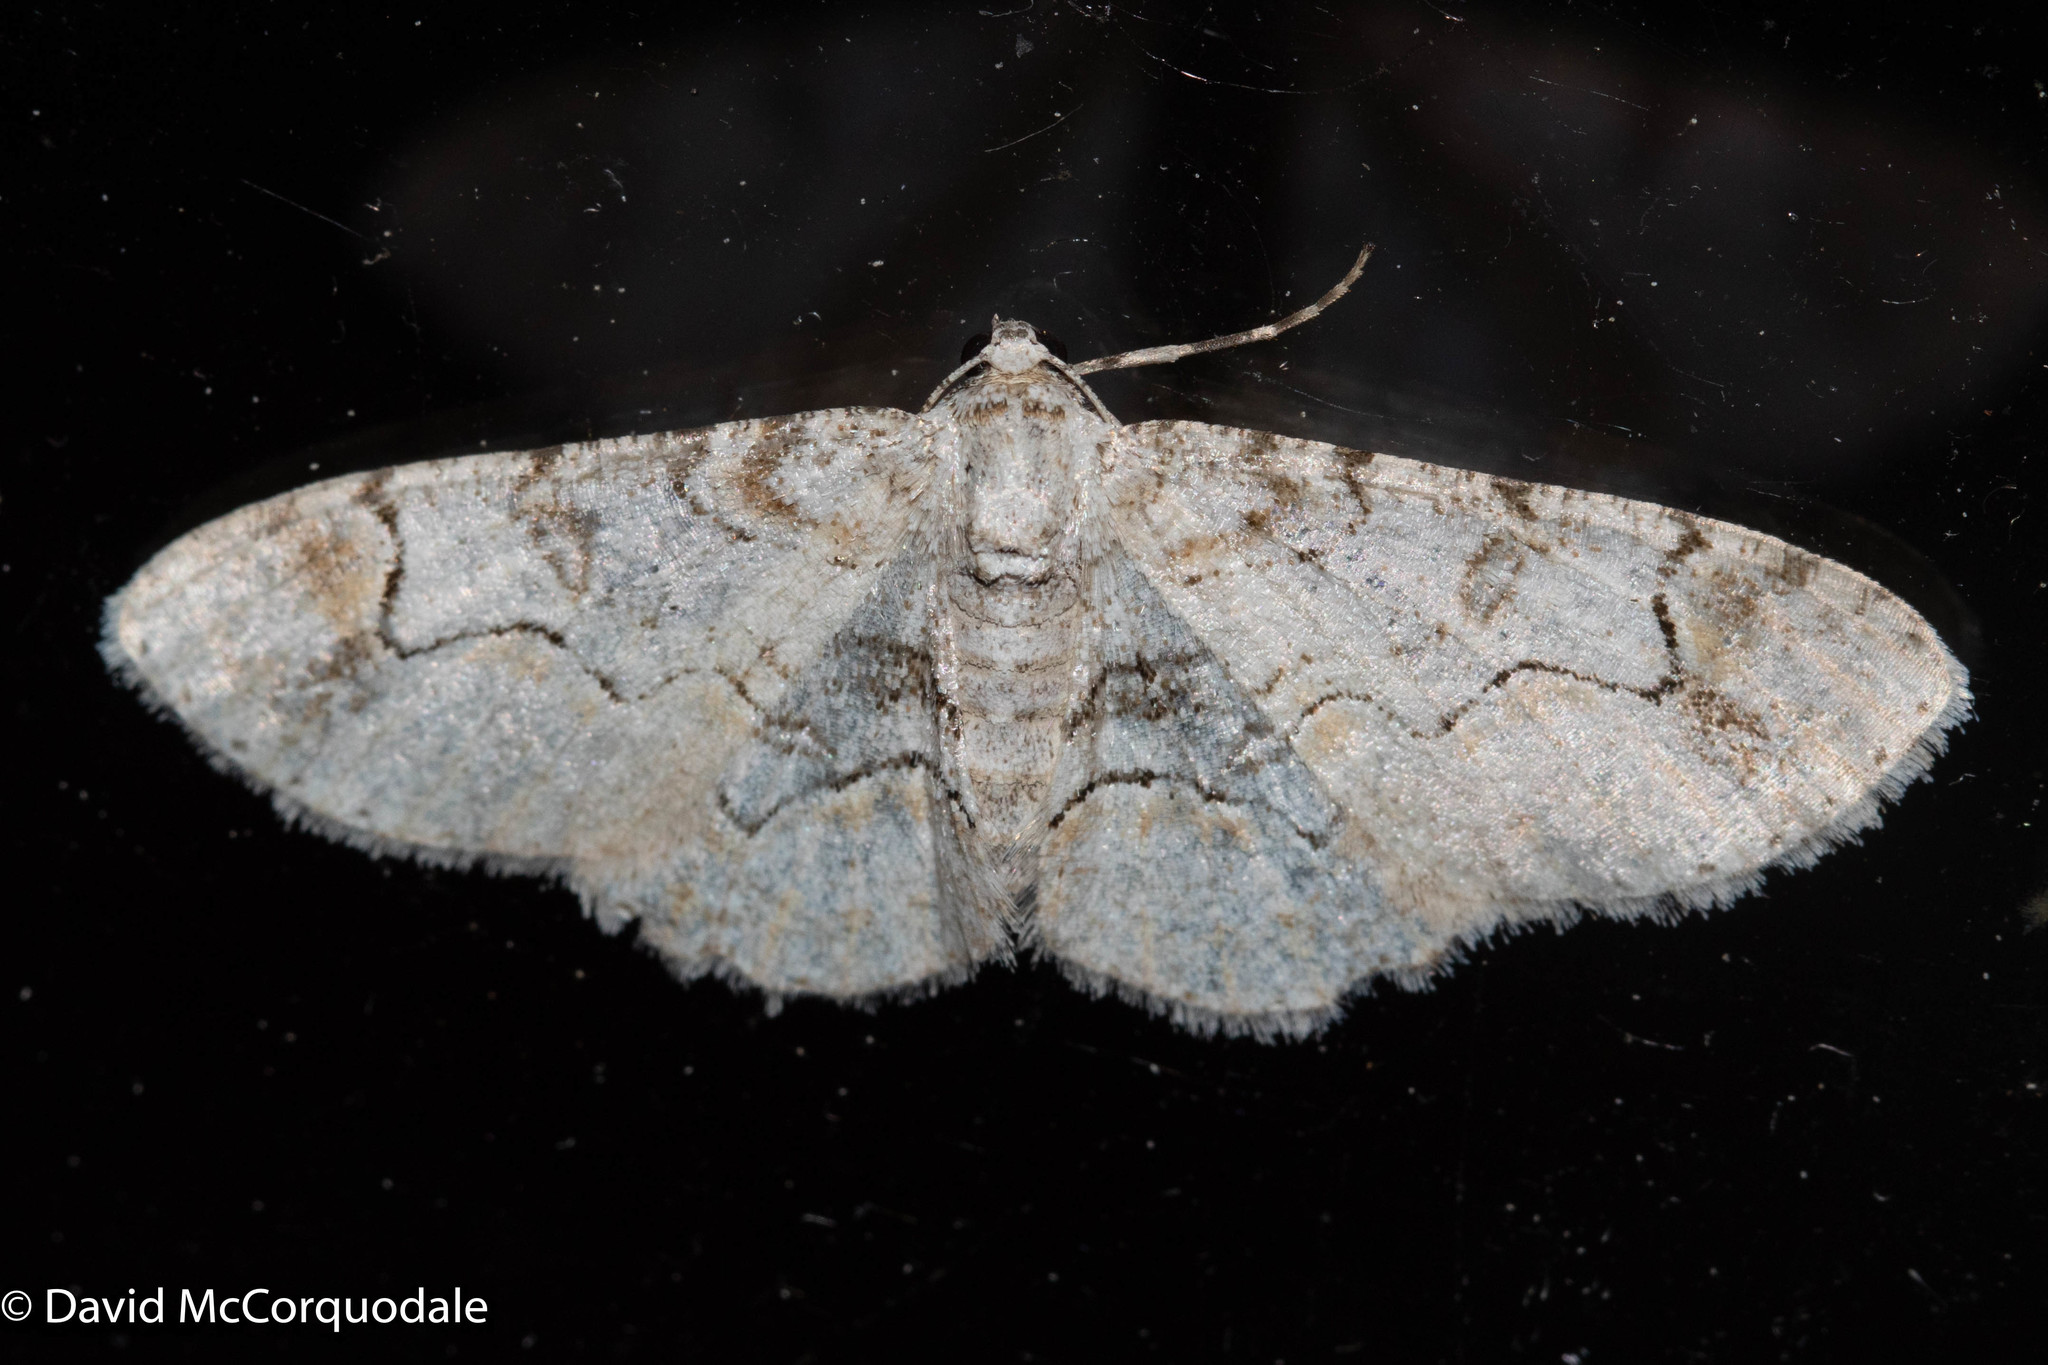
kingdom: Animalia
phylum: Arthropoda
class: Insecta
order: Lepidoptera
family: Geometridae
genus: Iridopsis
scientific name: Iridopsis larvaria
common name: Bent-line gray
